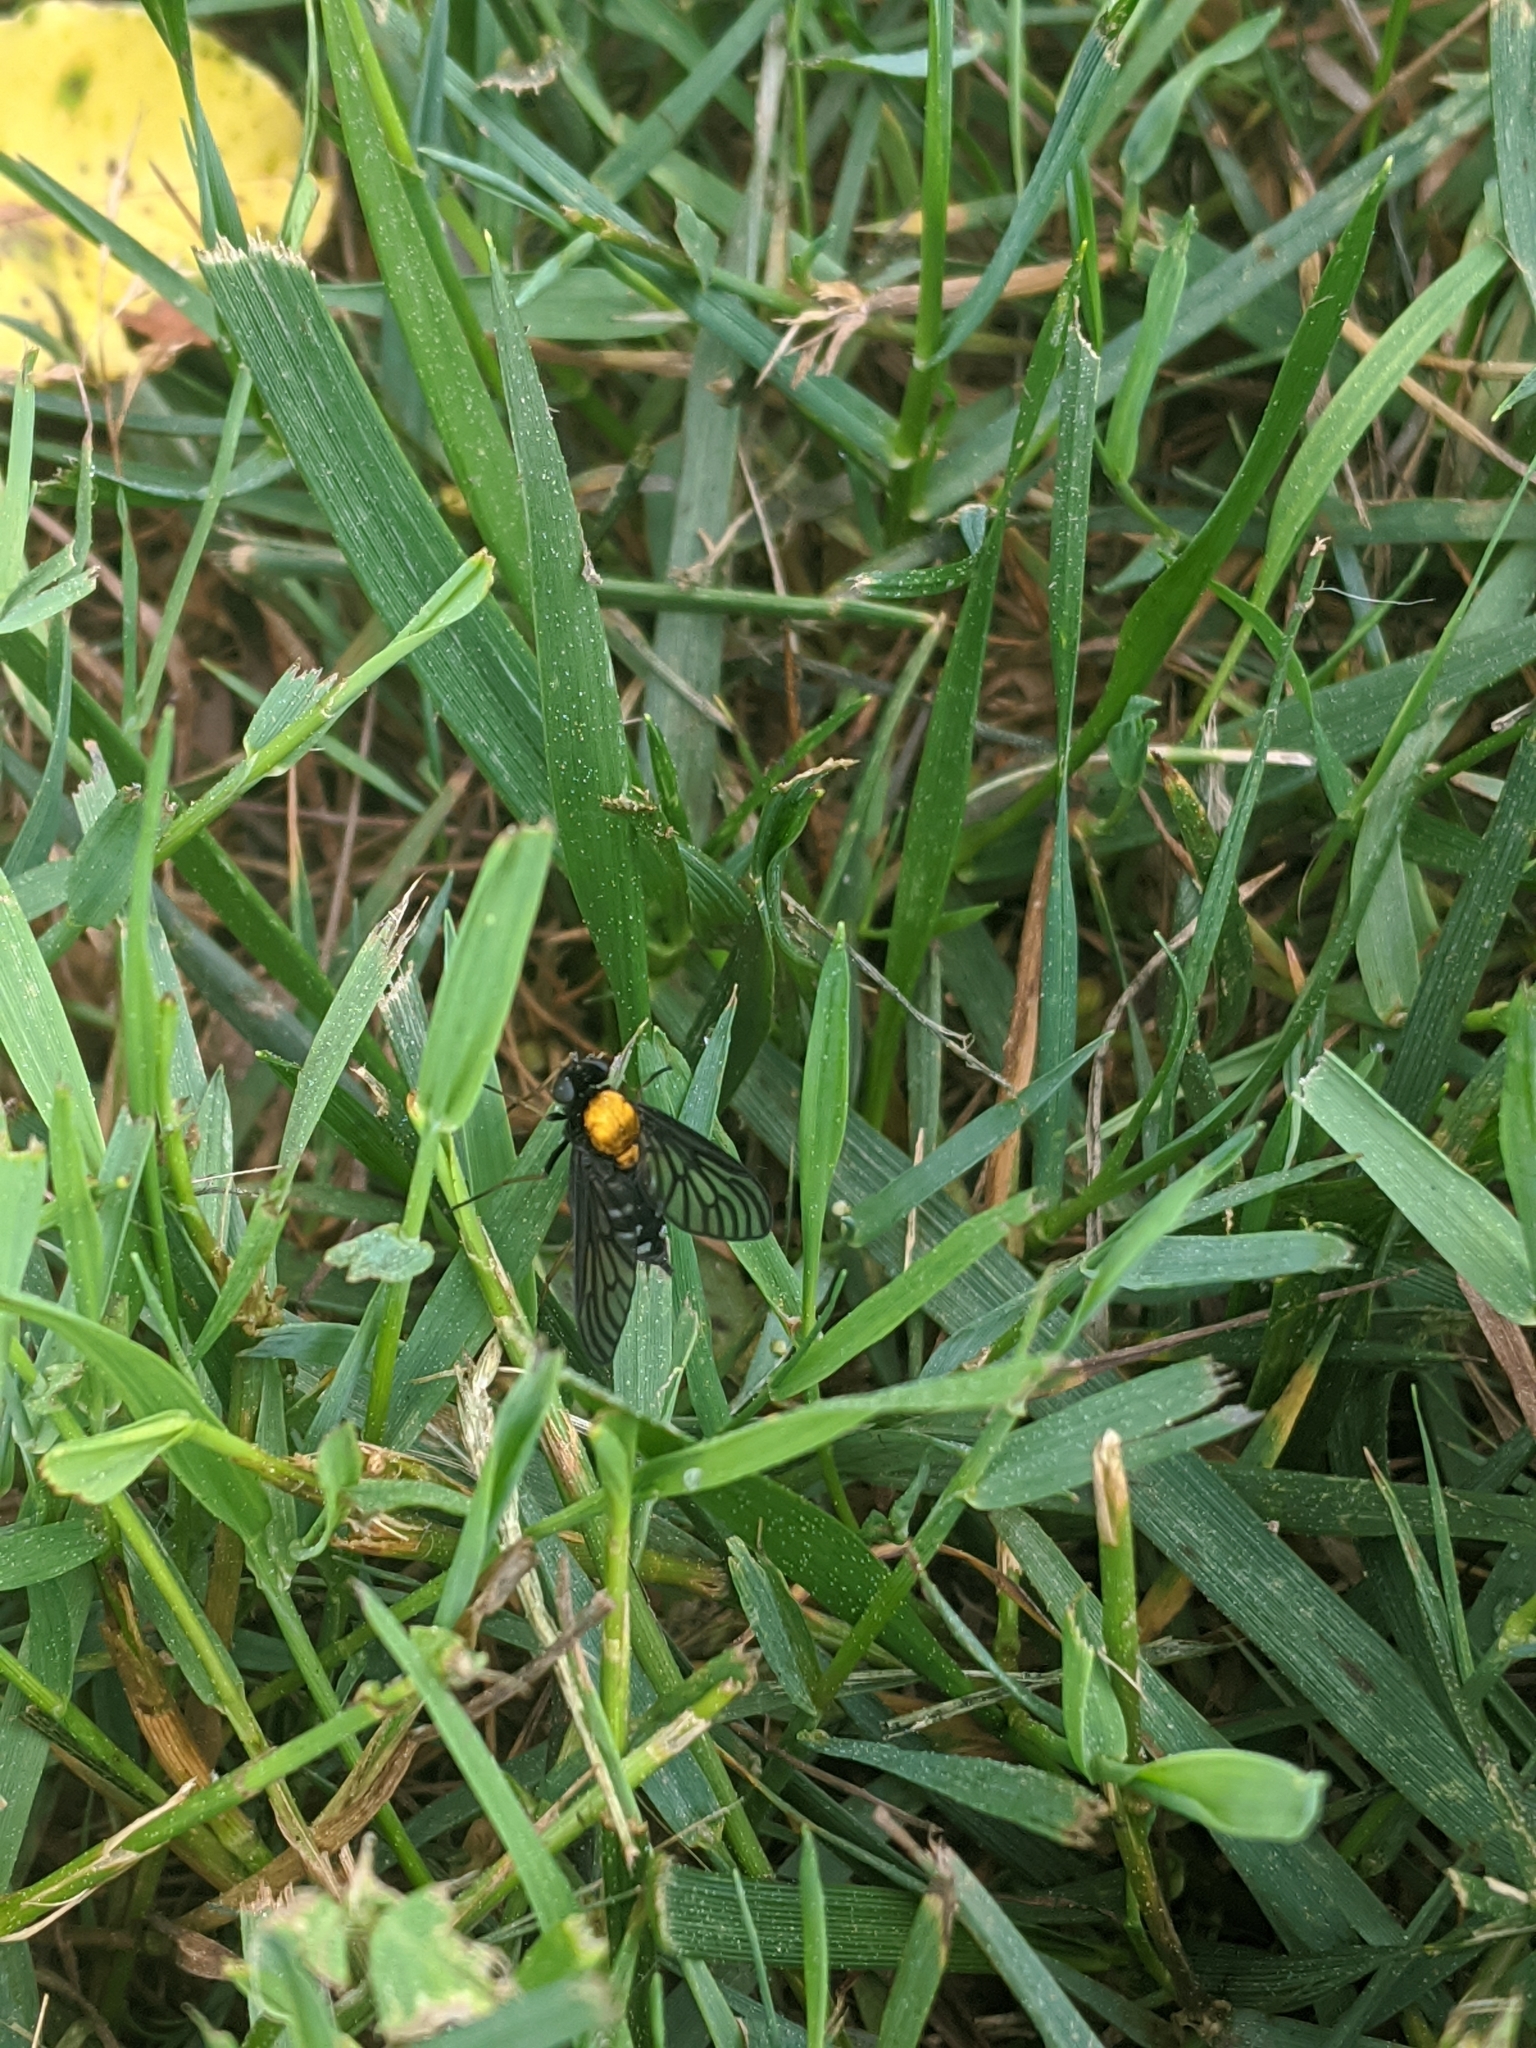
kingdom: Animalia
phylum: Arthropoda
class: Insecta
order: Diptera
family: Rhagionidae
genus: Chrysopilus
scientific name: Chrysopilus thoracicus
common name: Golden-backed snipe fly
